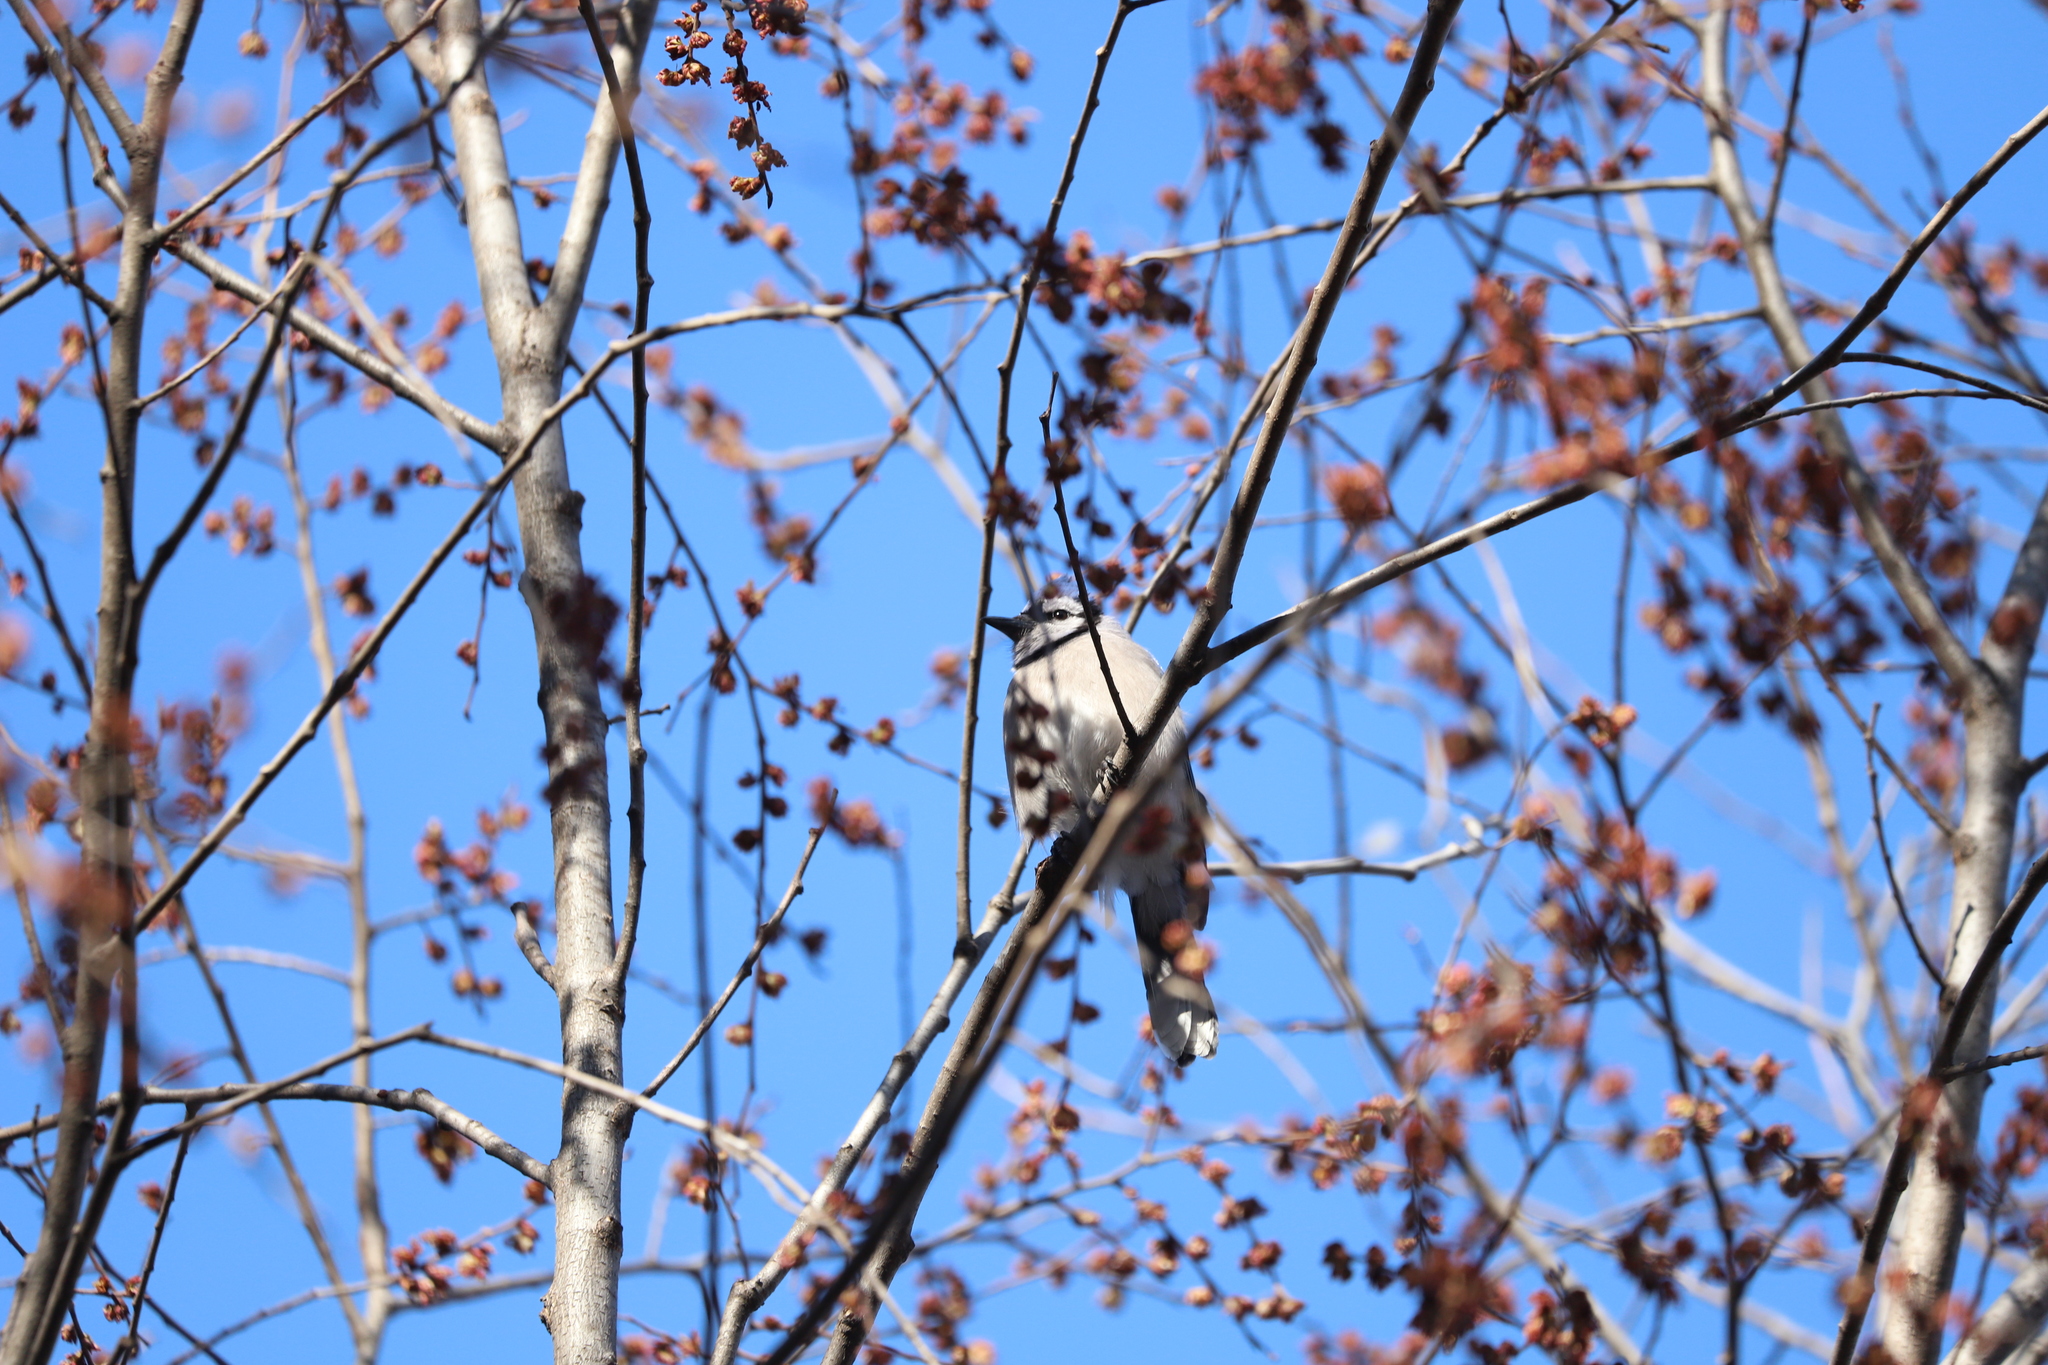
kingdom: Animalia
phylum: Chordata
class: Aves
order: Passeriformes
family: Corvidae
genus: Cyanocitta
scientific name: Cyanocitta cristata
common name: Blue jay
